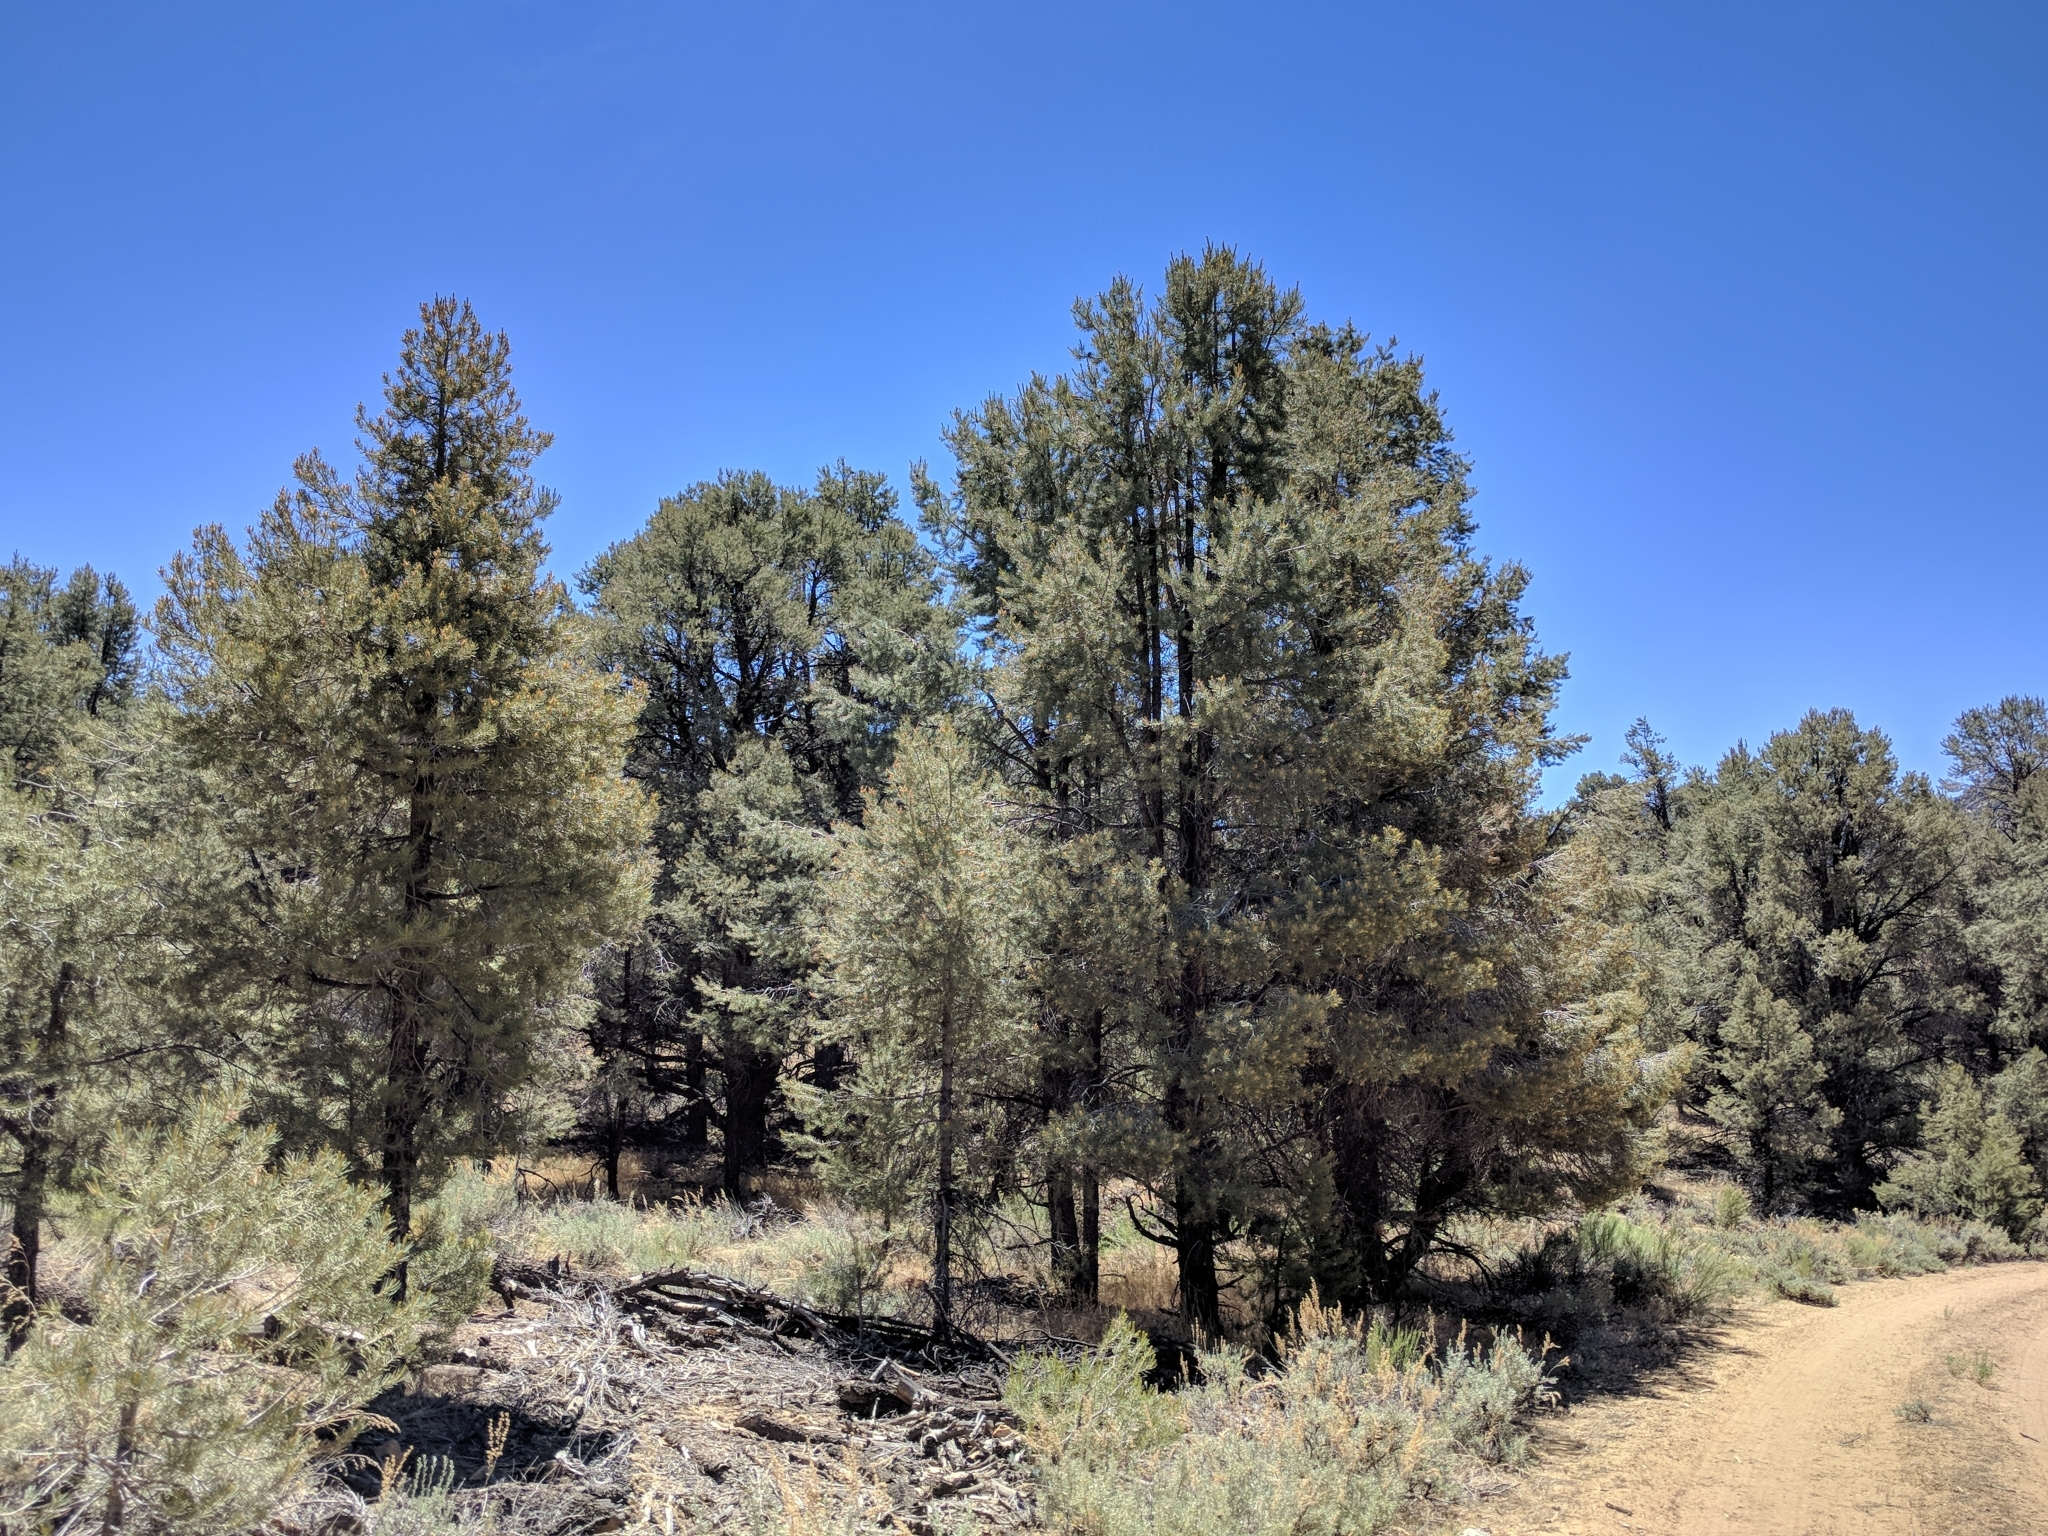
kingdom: Plantae
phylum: Tracheophyta
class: Pinopsida
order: Pinales
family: Pinaceae
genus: Pinus
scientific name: Pinus monophylla
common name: One-leaved nut pine
